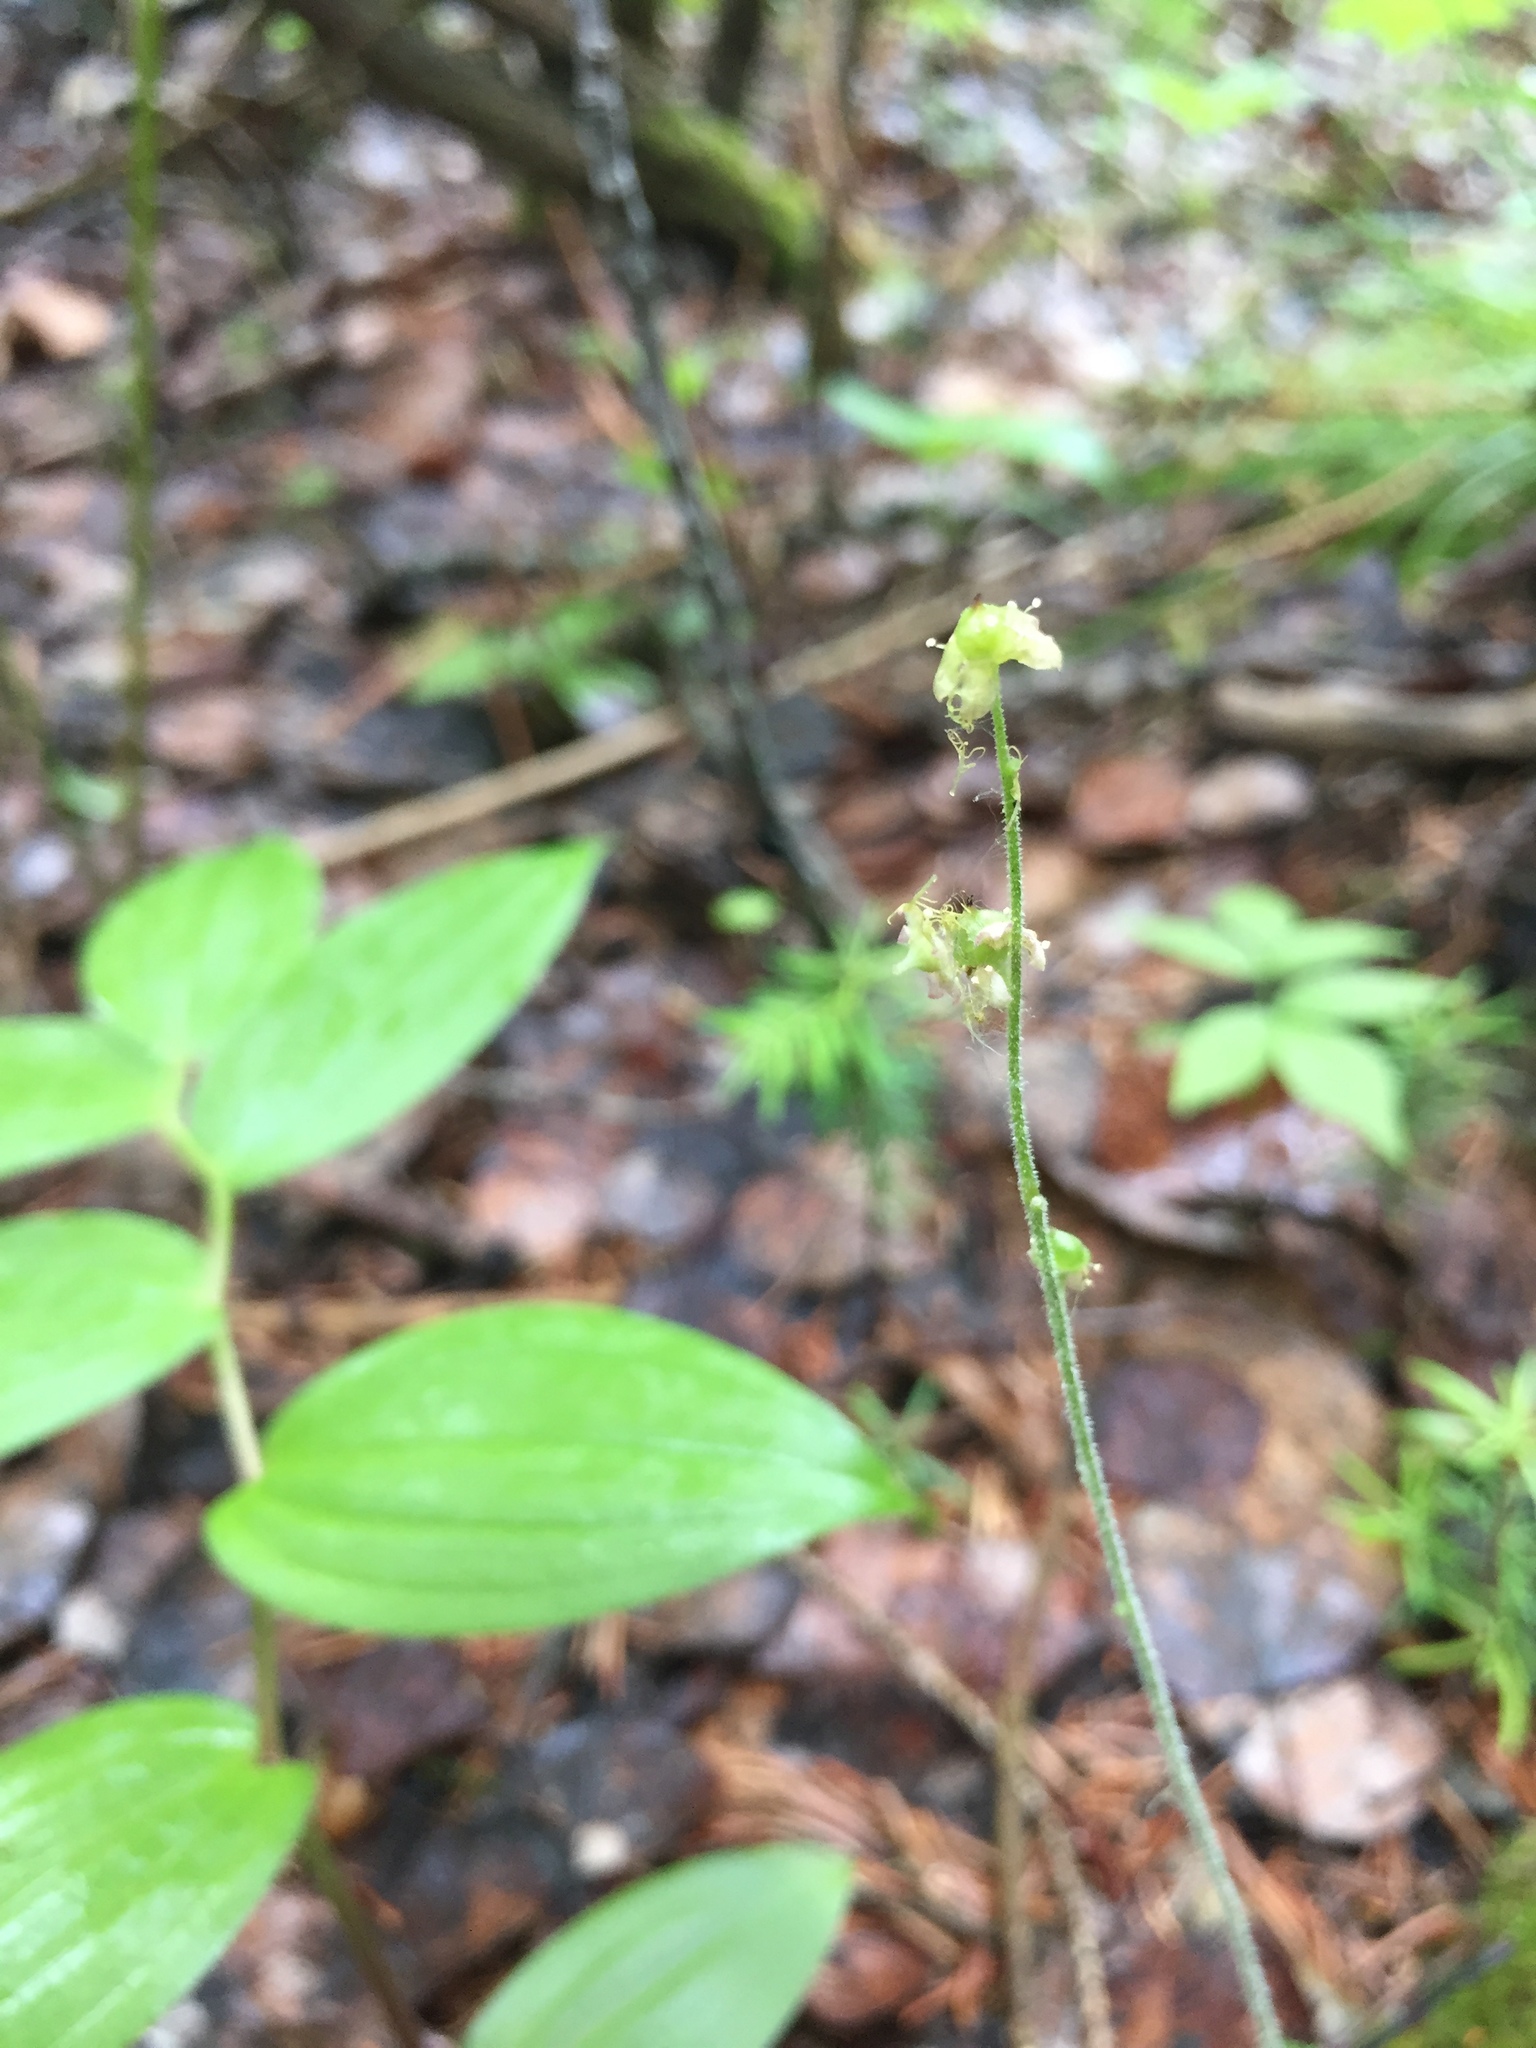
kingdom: Plantae
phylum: Tracheophyta
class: Magnoliopsida
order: Saxifragales
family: Saxifragaceae
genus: Mitella
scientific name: Mitella nuda
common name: Bare-stemmed bishop's-cap
